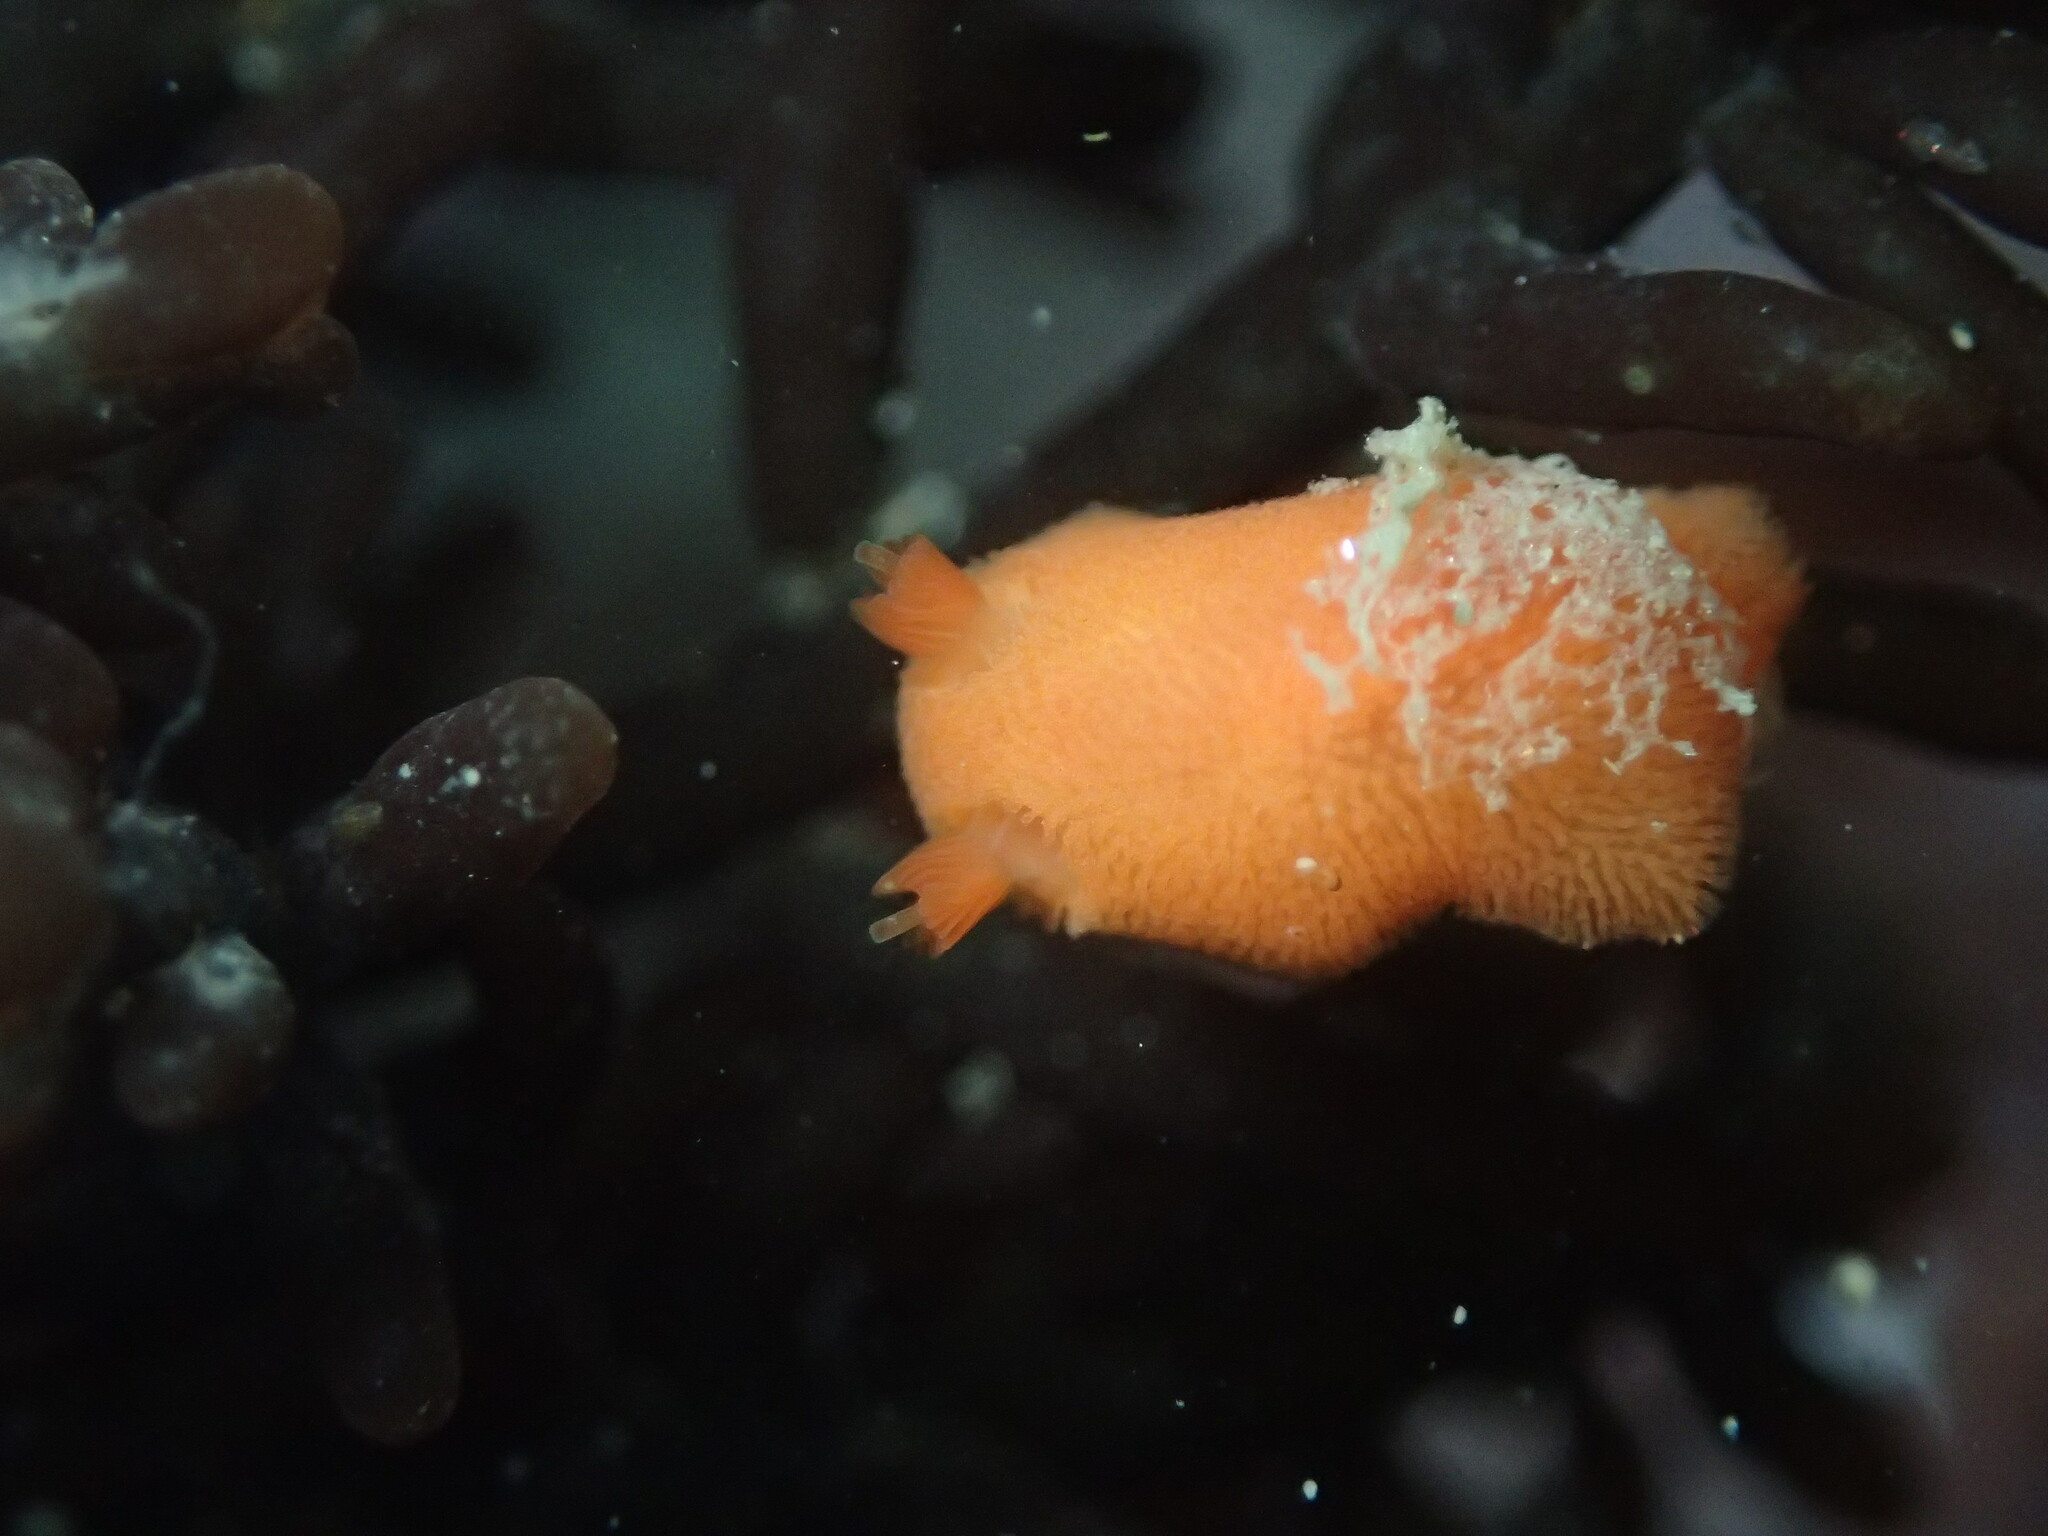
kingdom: Animalia
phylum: Mollusca
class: Gastropoda
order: Nudibranchia
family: Discodorididae
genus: Rostanga
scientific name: Rostanga pulchra
